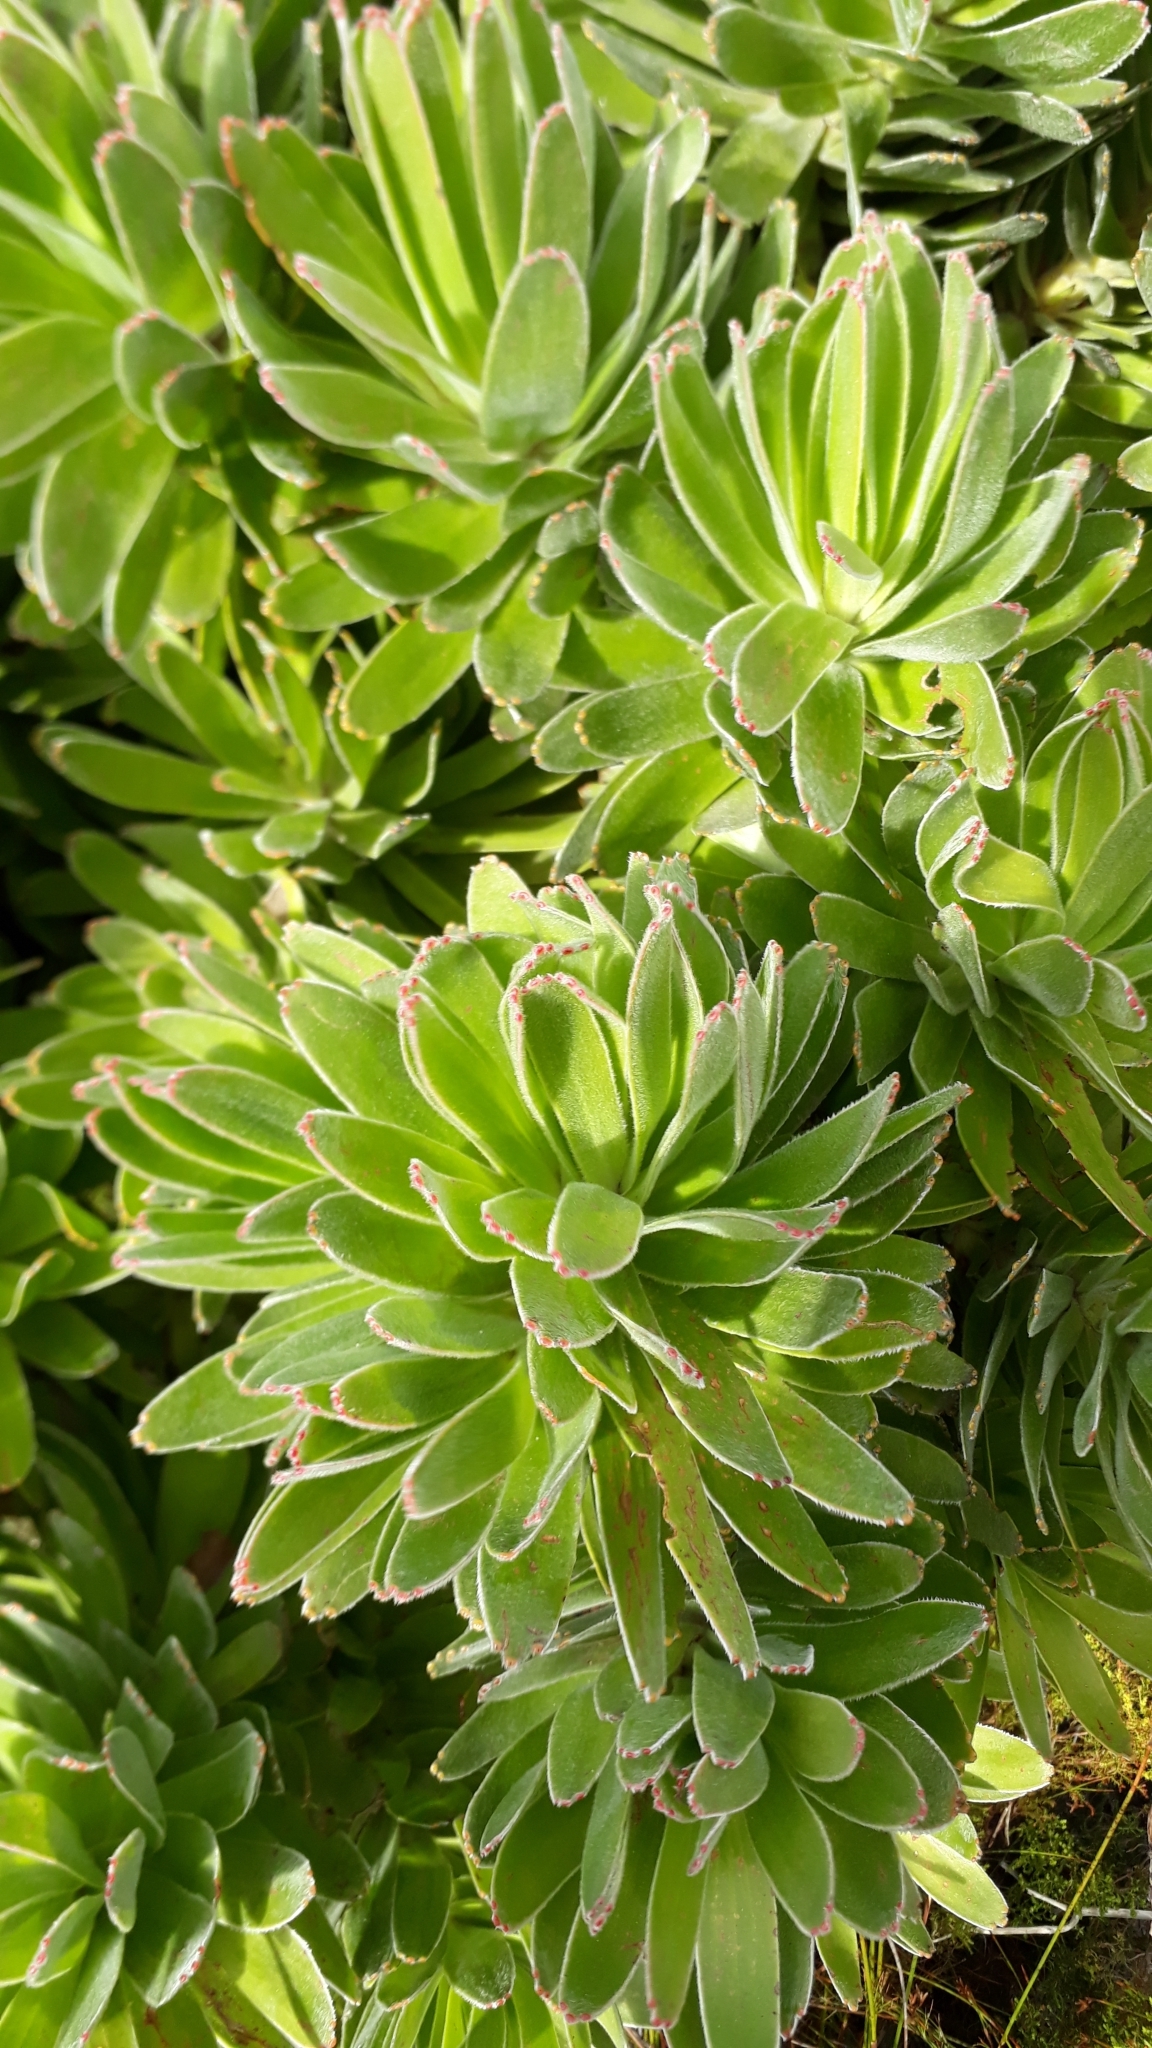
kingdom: Plantae
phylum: Tracheophyta
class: Magnoliopsida
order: Proteales
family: Proteaceae
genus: Mimetes
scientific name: Mimetes fimbriifolius
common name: Fringed bottlebrush
